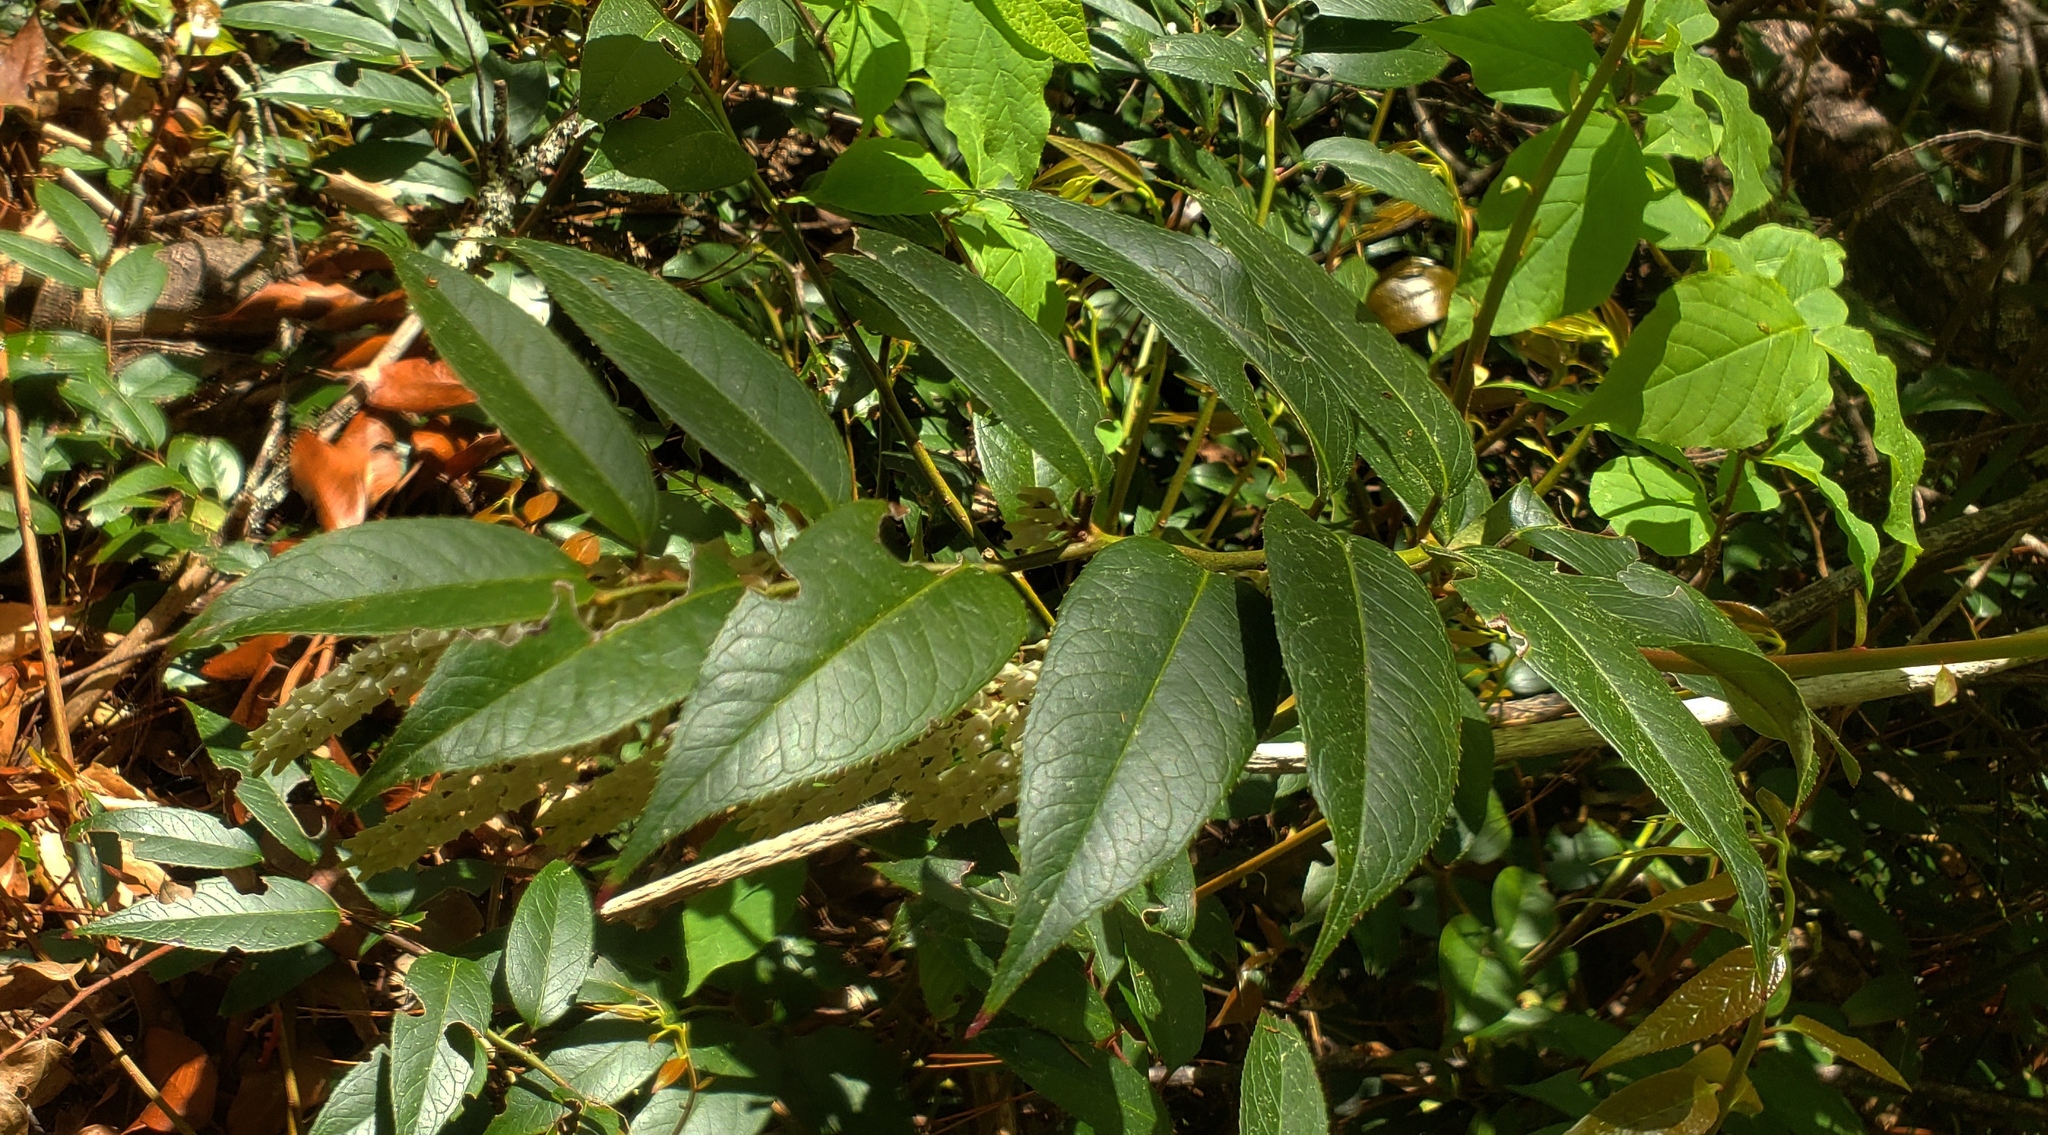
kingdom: Plantae
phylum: Tracheophyta
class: Magnoliopsida
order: Ericales
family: Ericaceae
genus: Leucothoe
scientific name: Leucothoe fontanesiana
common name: Fetterbush
